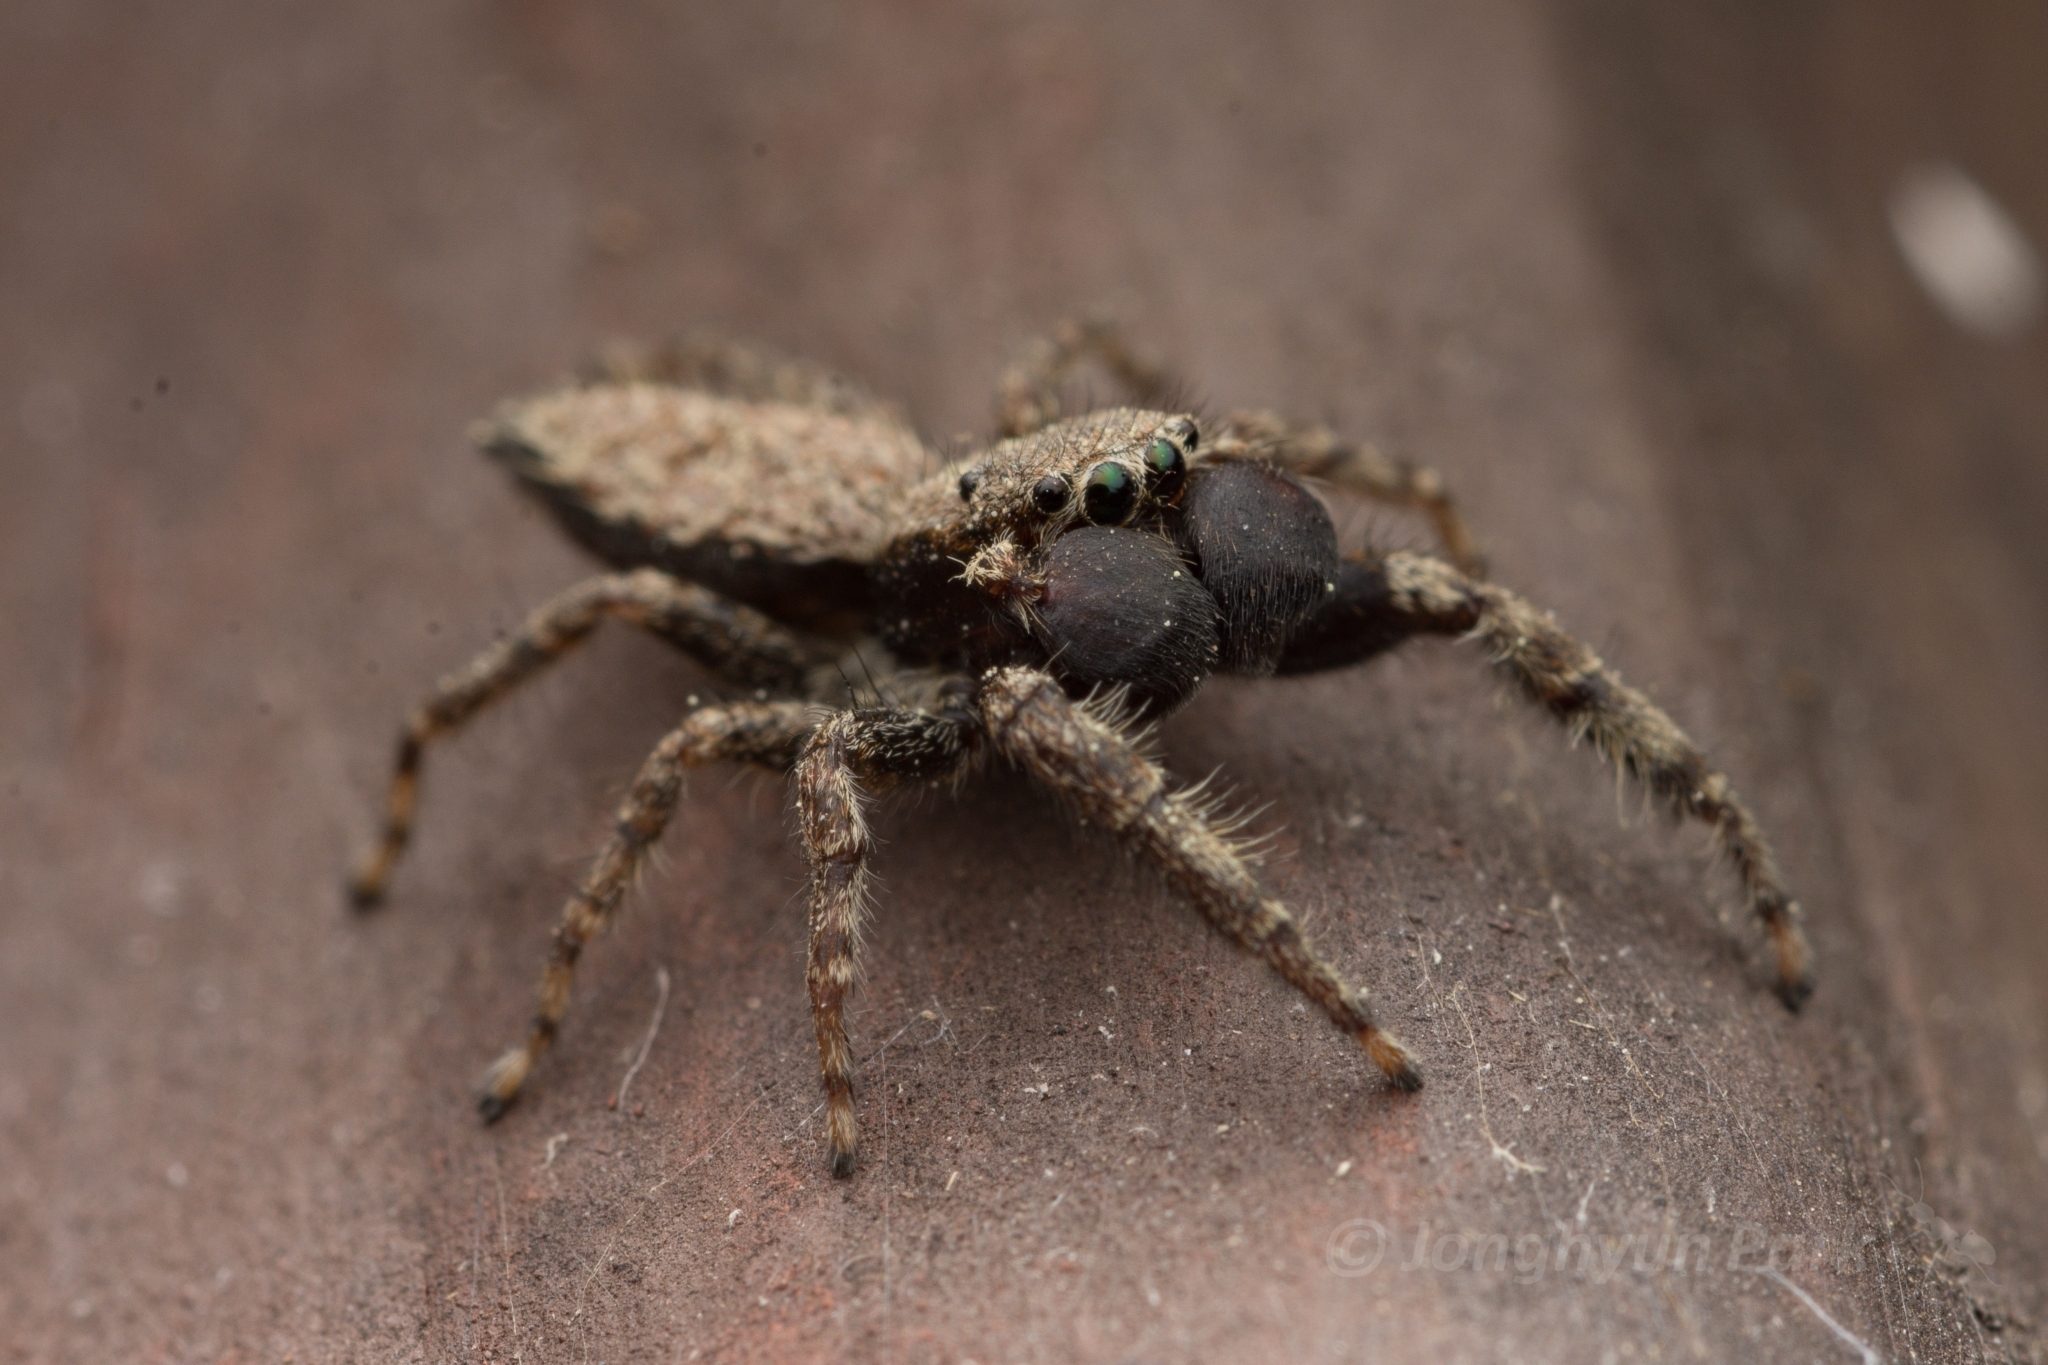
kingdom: Animalia
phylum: Arthropoda
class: Arachnida
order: Araneae
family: Salticidae
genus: Marpissa
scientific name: Marpissa milleri
